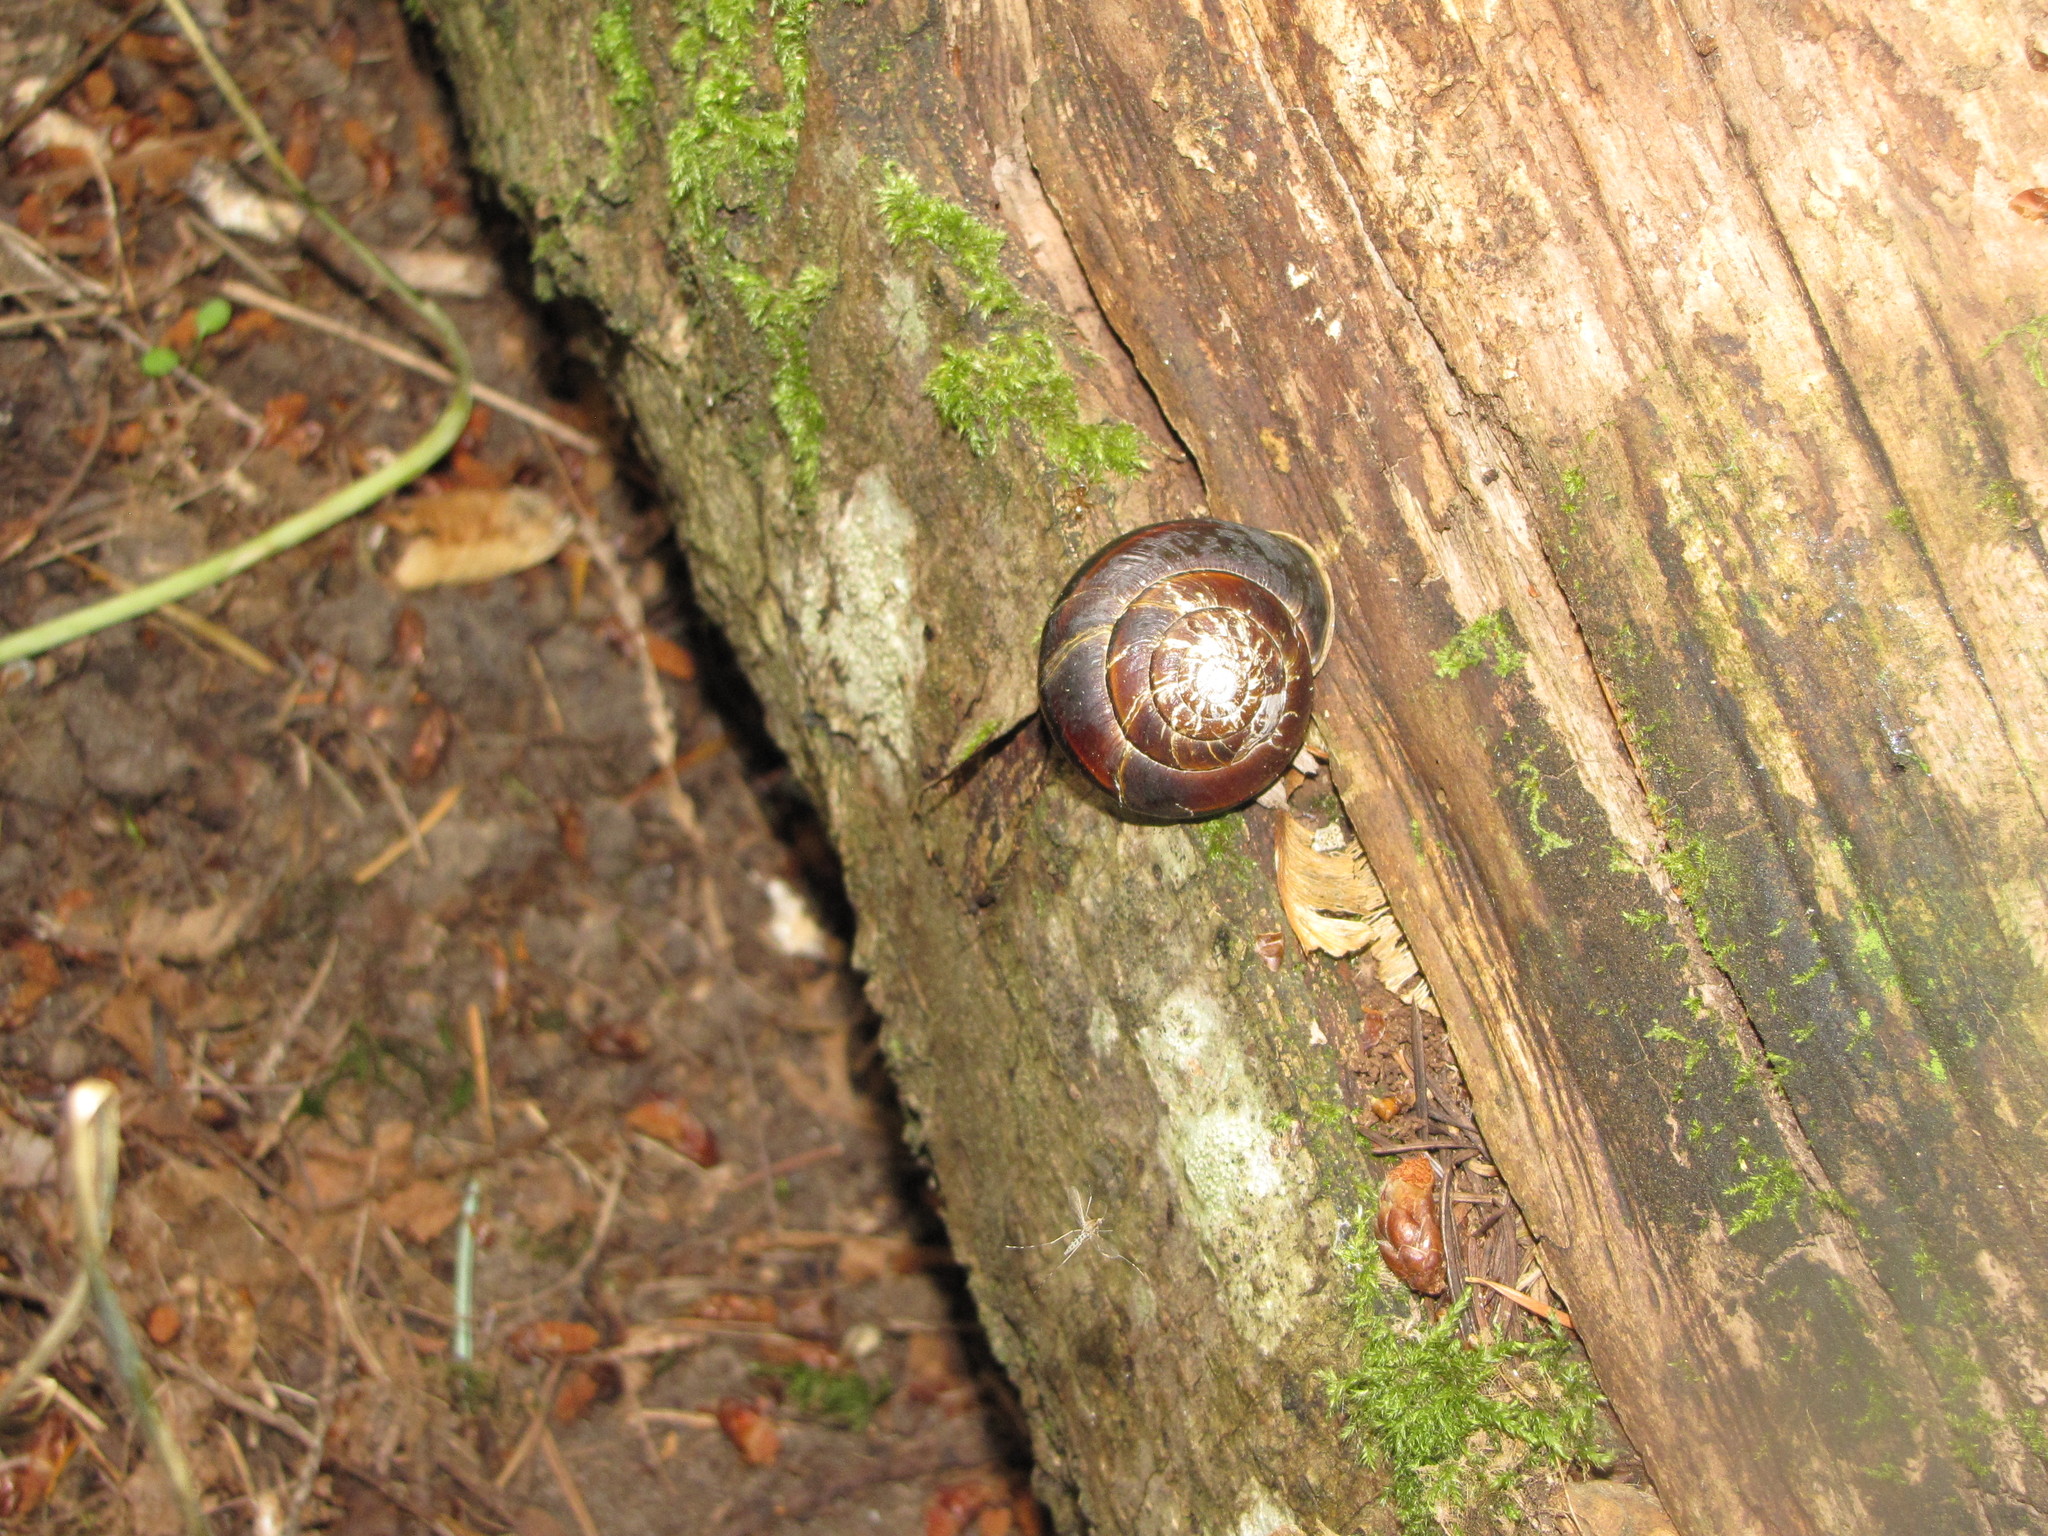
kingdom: Animalia
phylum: Mollusca
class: Gastropoda
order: Stylommatophora
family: Xanthonychidae
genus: Monadenia
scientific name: Monadenia fidelis
